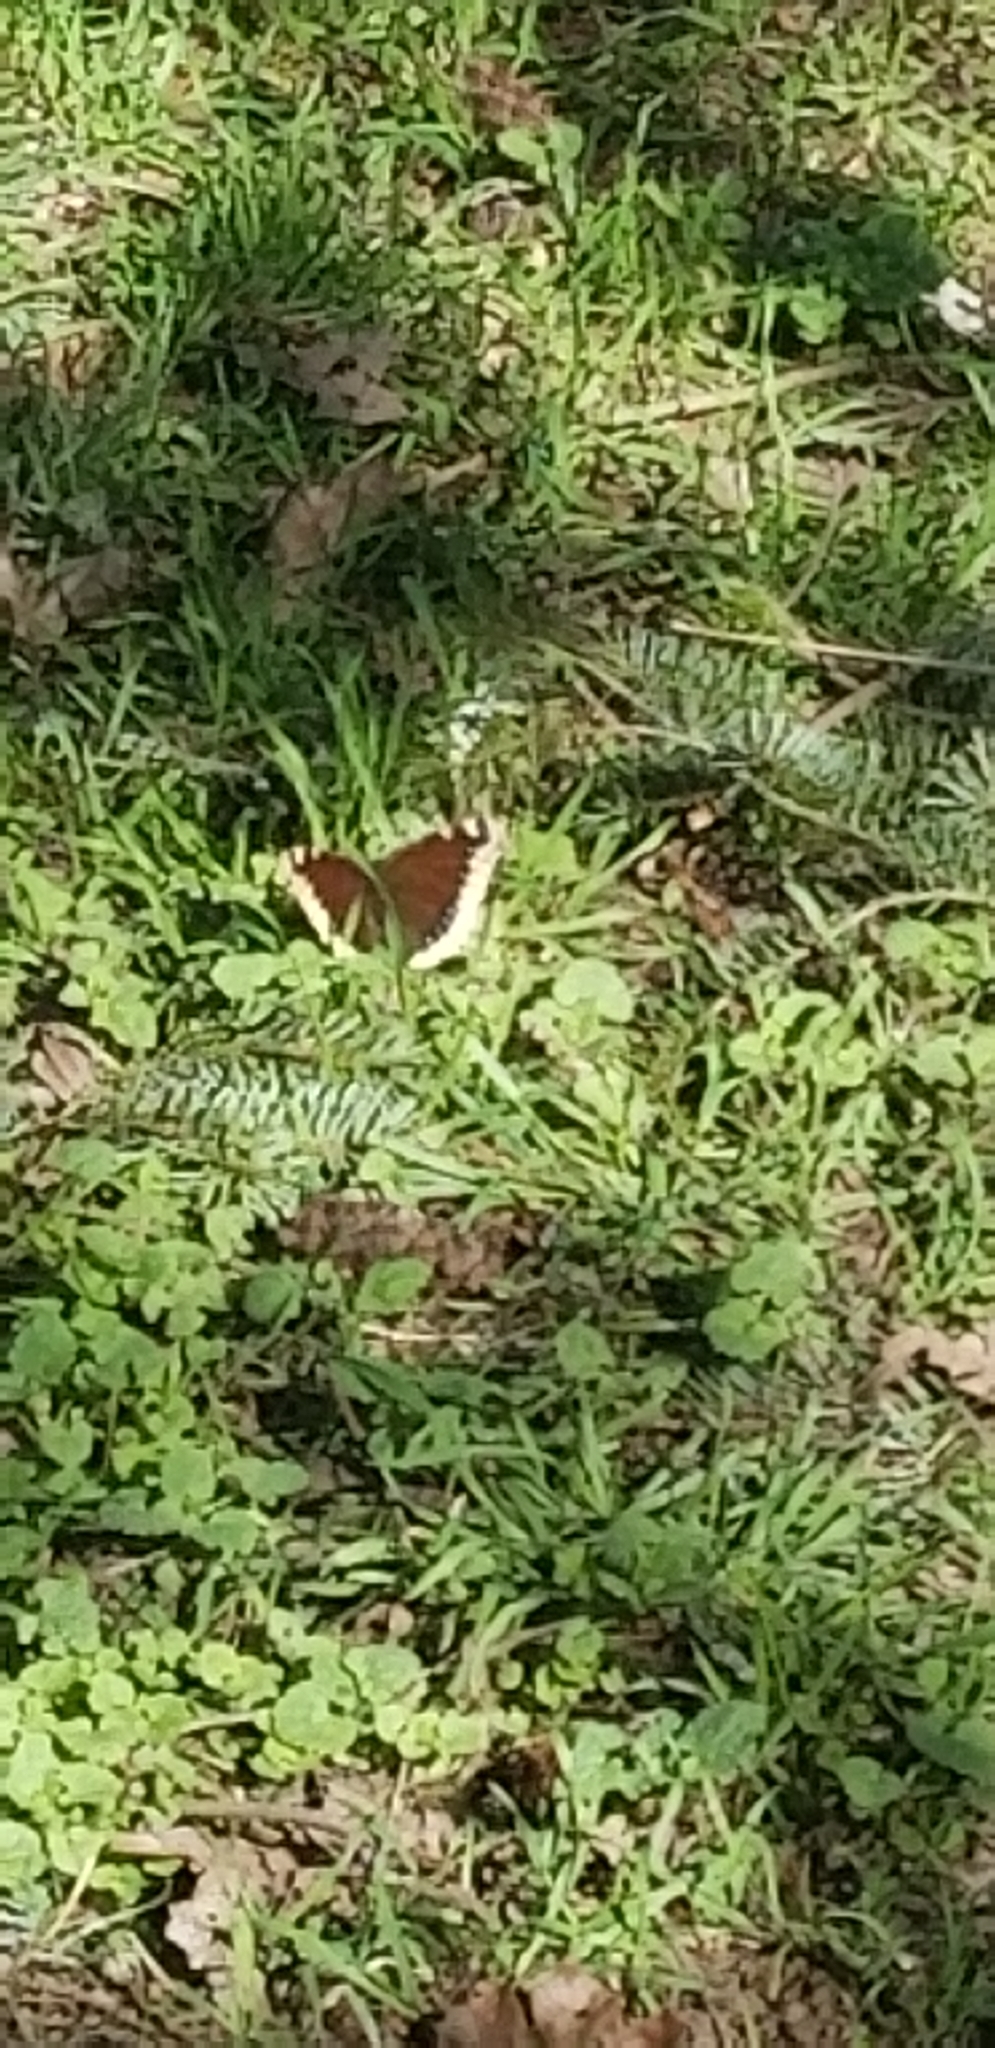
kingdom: Animalia
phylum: Arthropoda
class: Insecta
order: Lepidoptera
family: Nymphalidae
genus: Nymphalis
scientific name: Nymphalis antiopa
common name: Camberwell beauty
